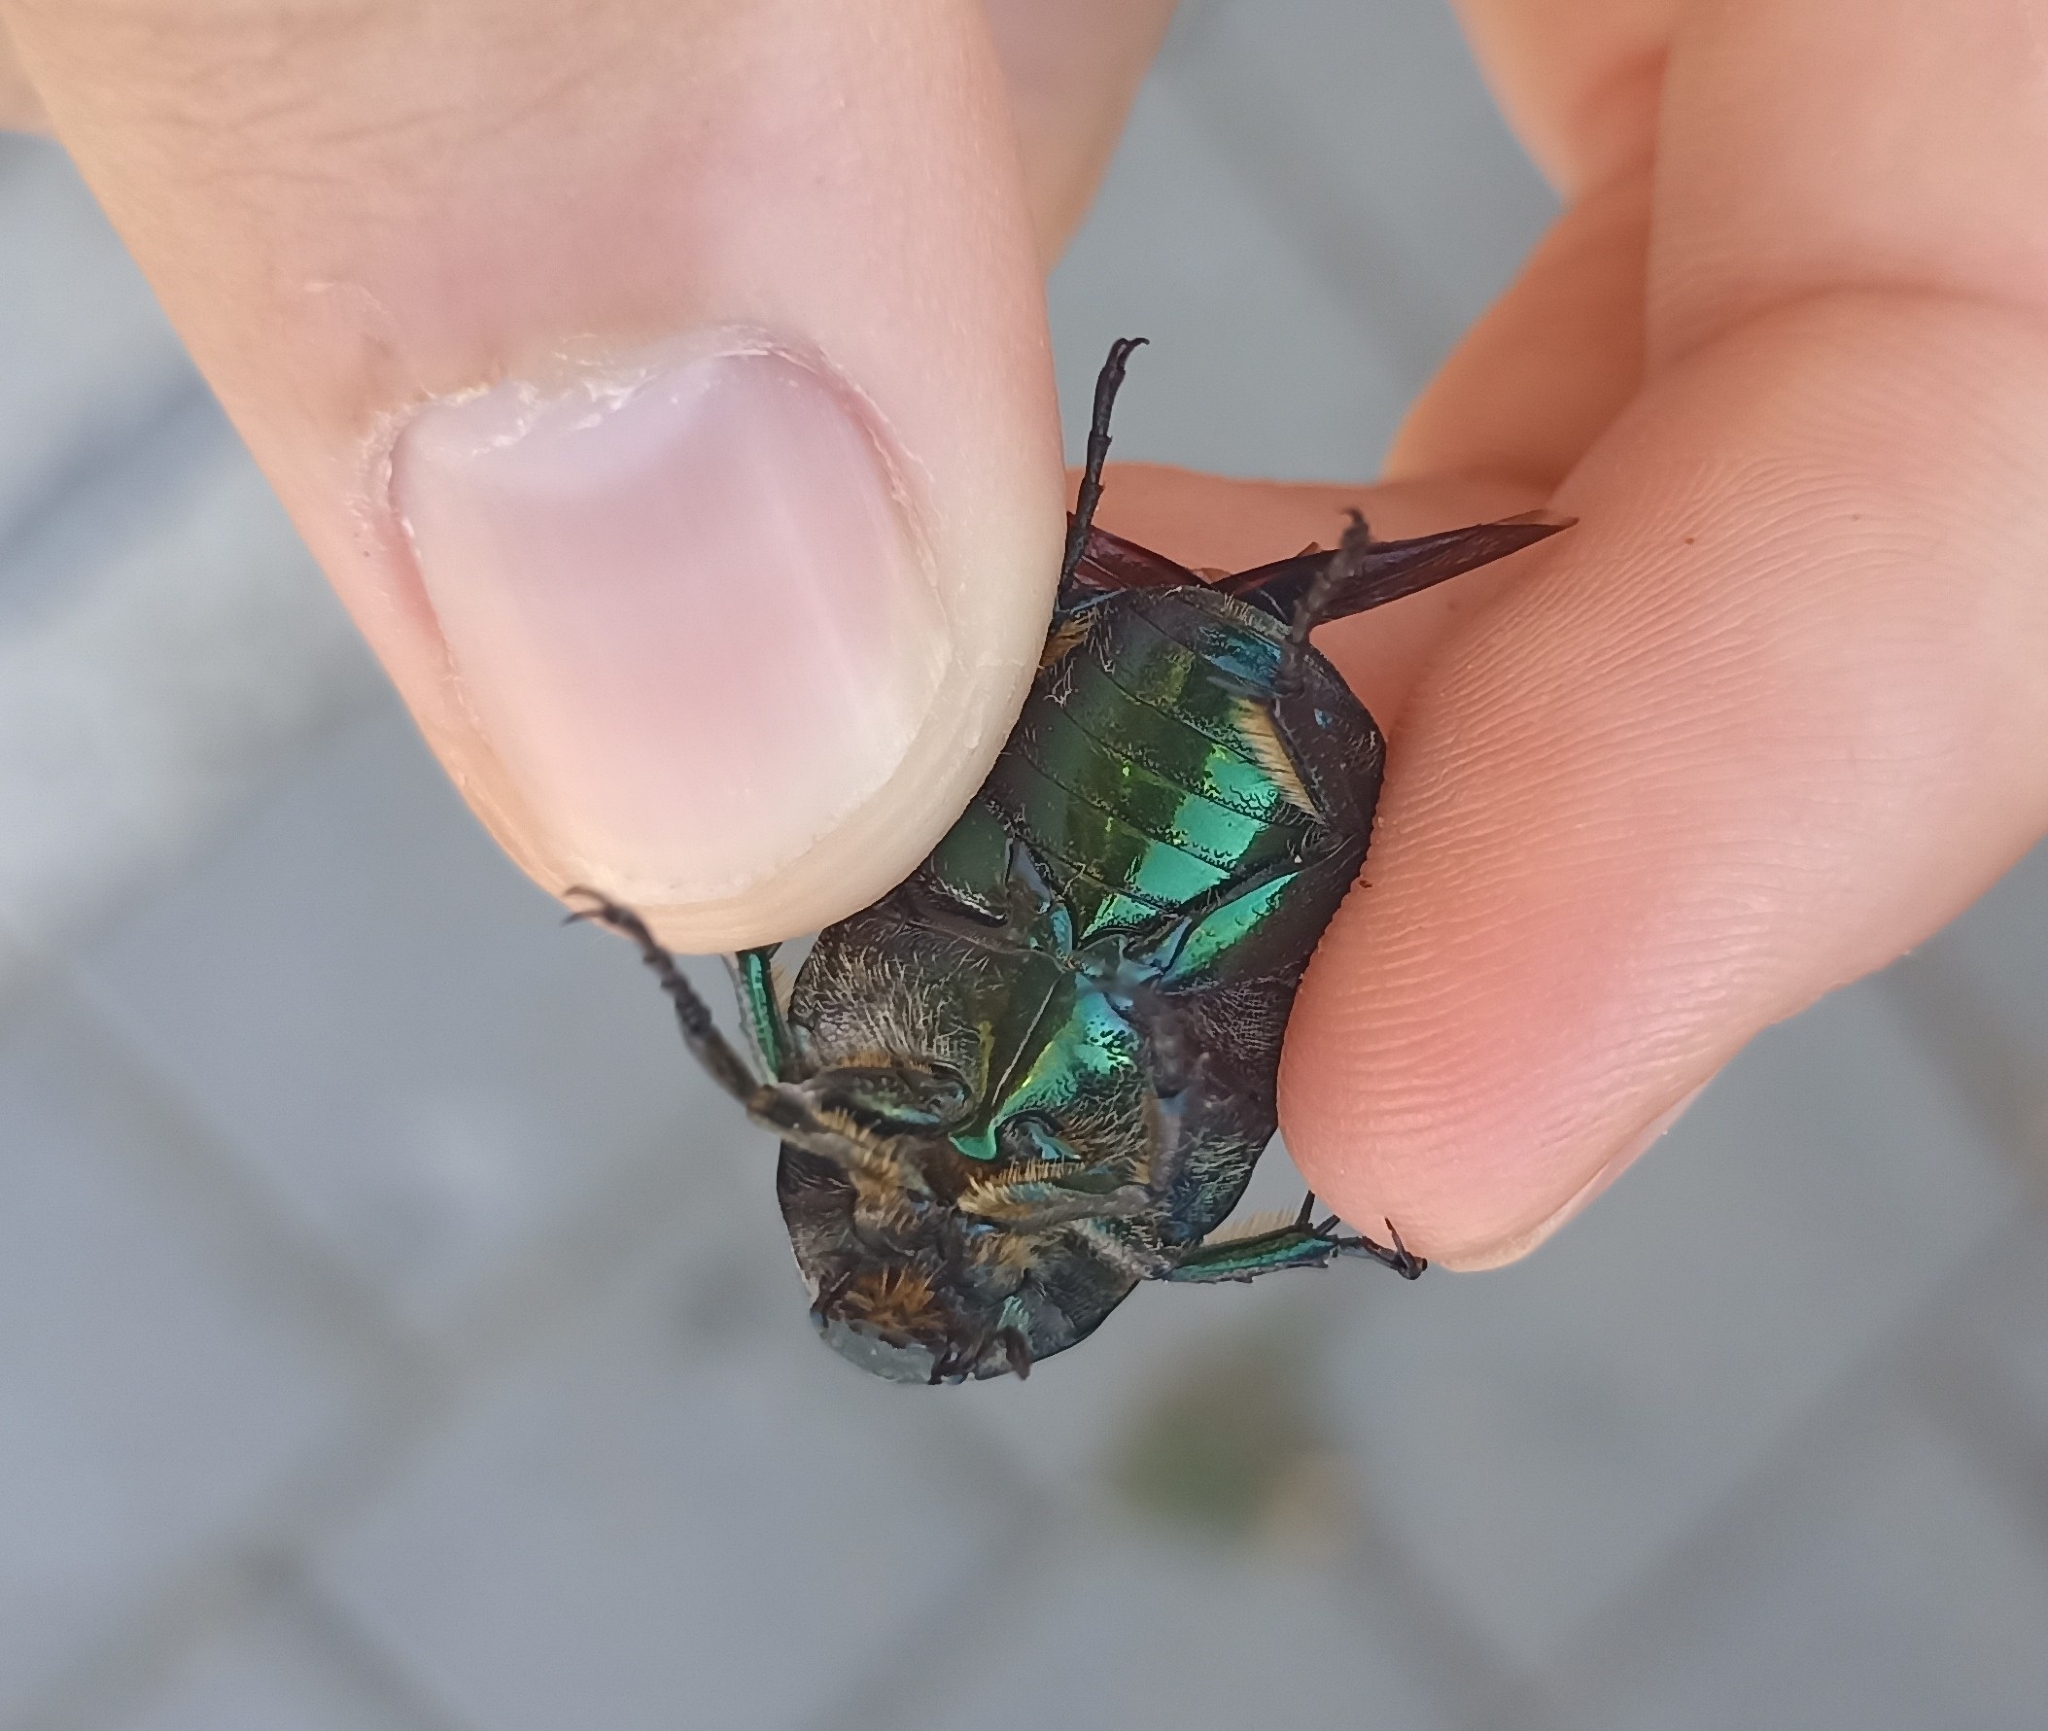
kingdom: Animalia
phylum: Arthropoda
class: Insecta
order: Coleoptera
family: Scarabaeidae
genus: Protaetia
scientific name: Protaetia angustata
